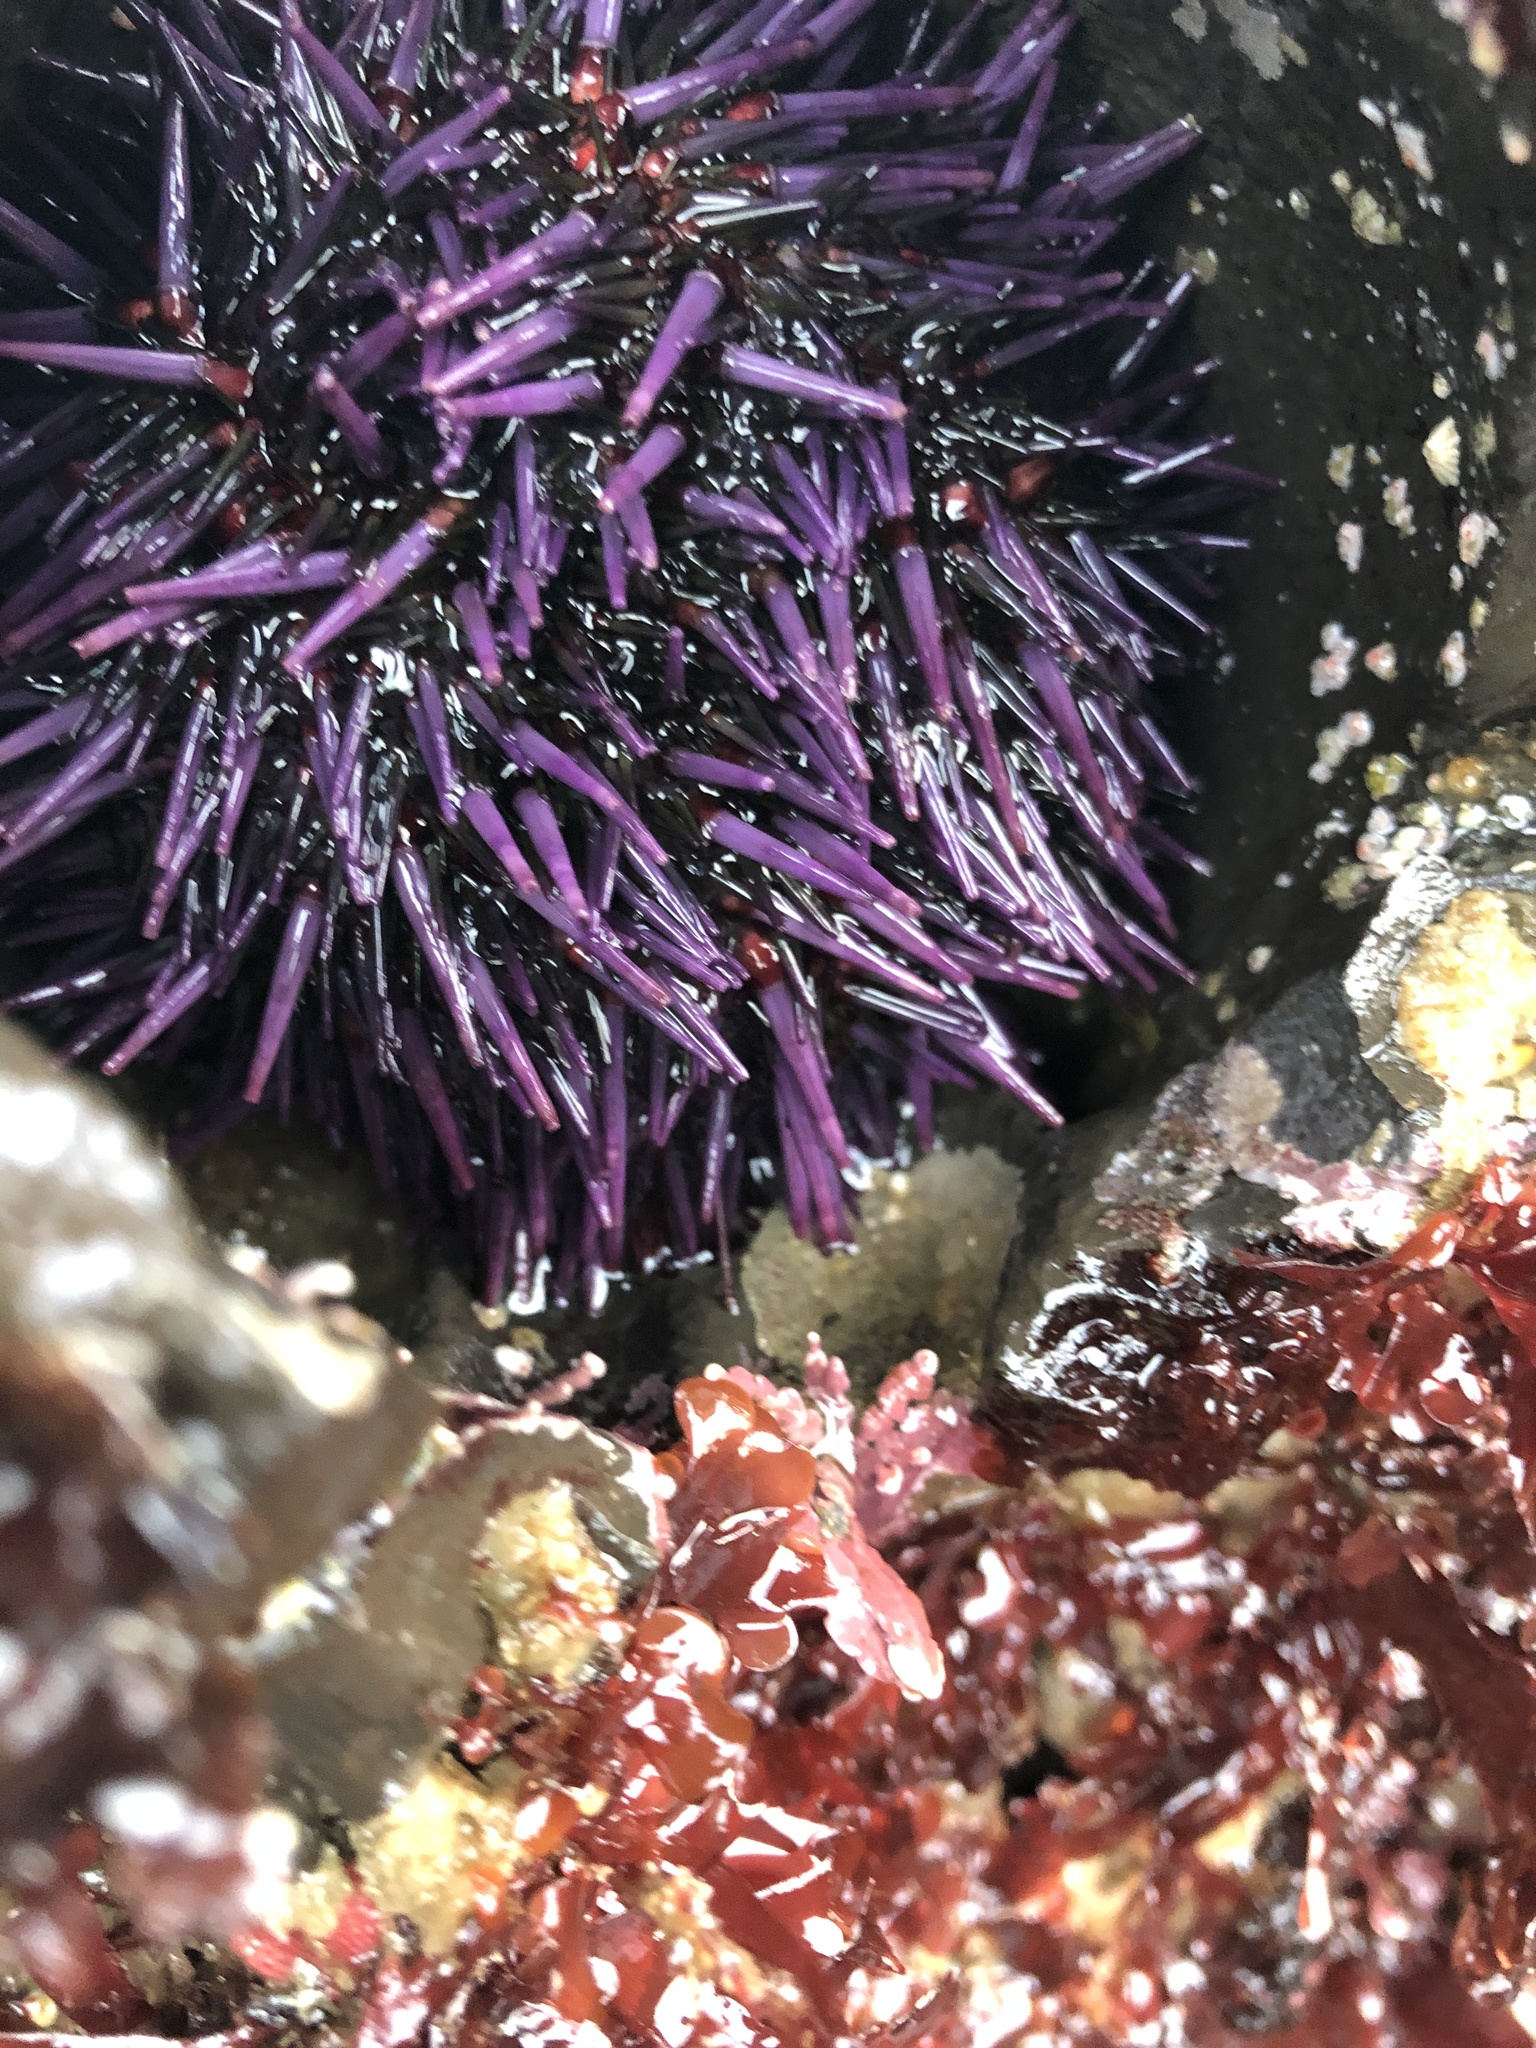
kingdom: Animalia
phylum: Echinodermata
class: Echinoidea
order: Camarodonta
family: Strongylocentrotidae
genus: Strongylocentrotus
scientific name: Strongylocentrotus purpuratus
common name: Purple sea urchin
